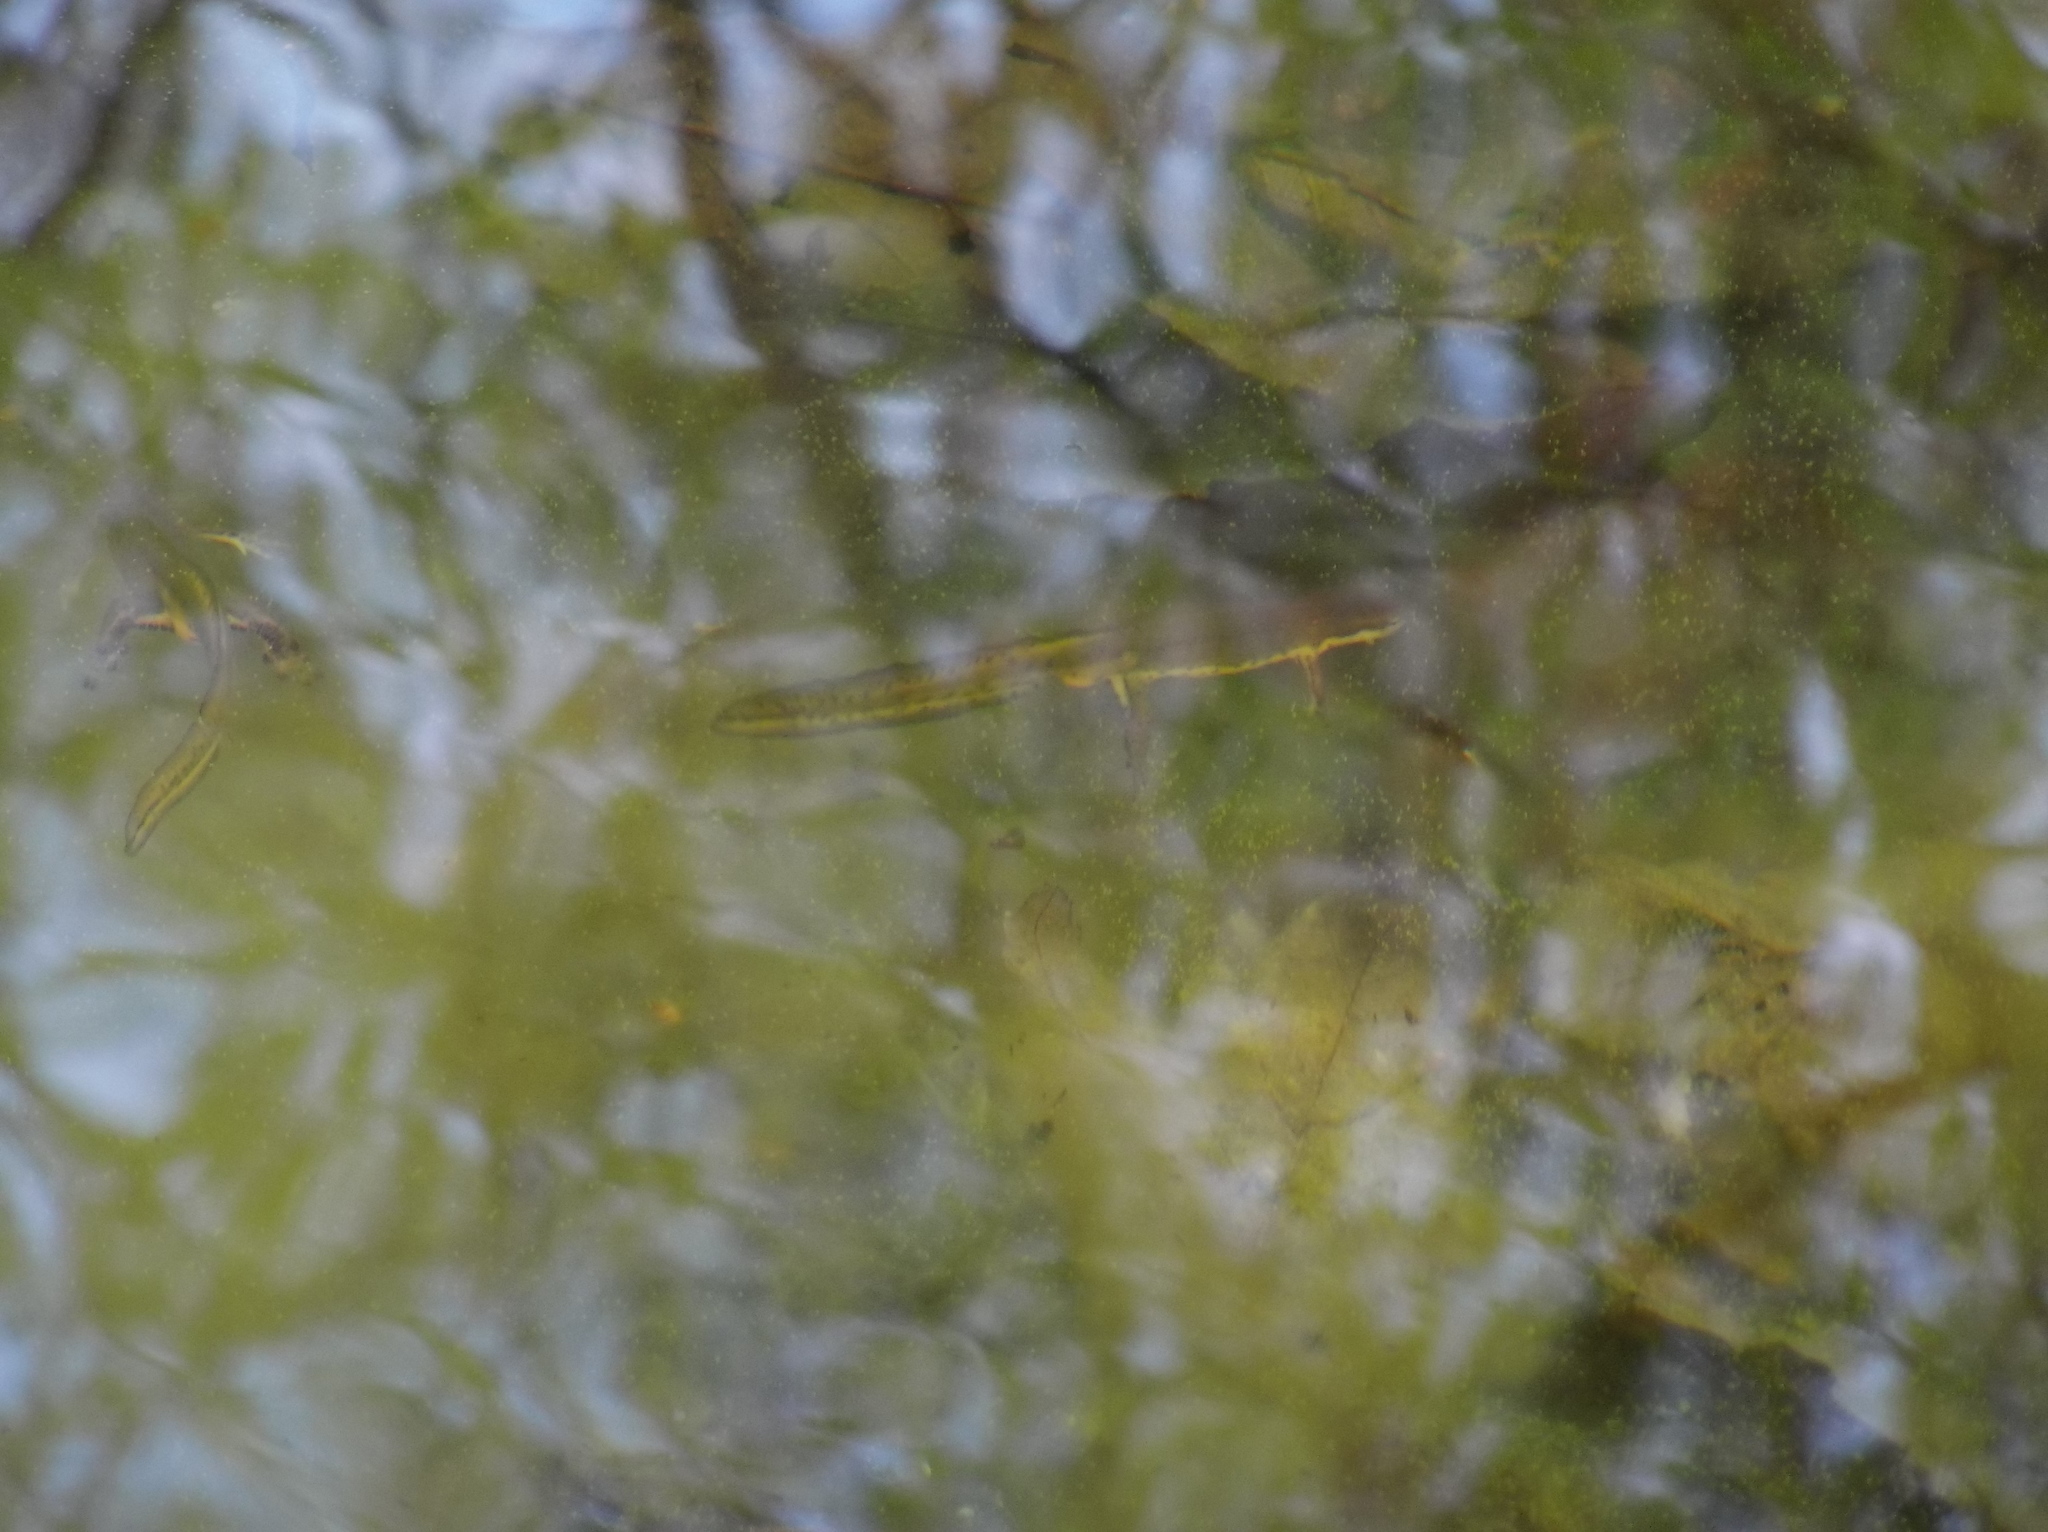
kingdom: Animalia
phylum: Chordata
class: Amphibia
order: Caudata
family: Salamandridae
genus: Notophthalmus
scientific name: Notophthalmus viridescens
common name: Eastern newt
